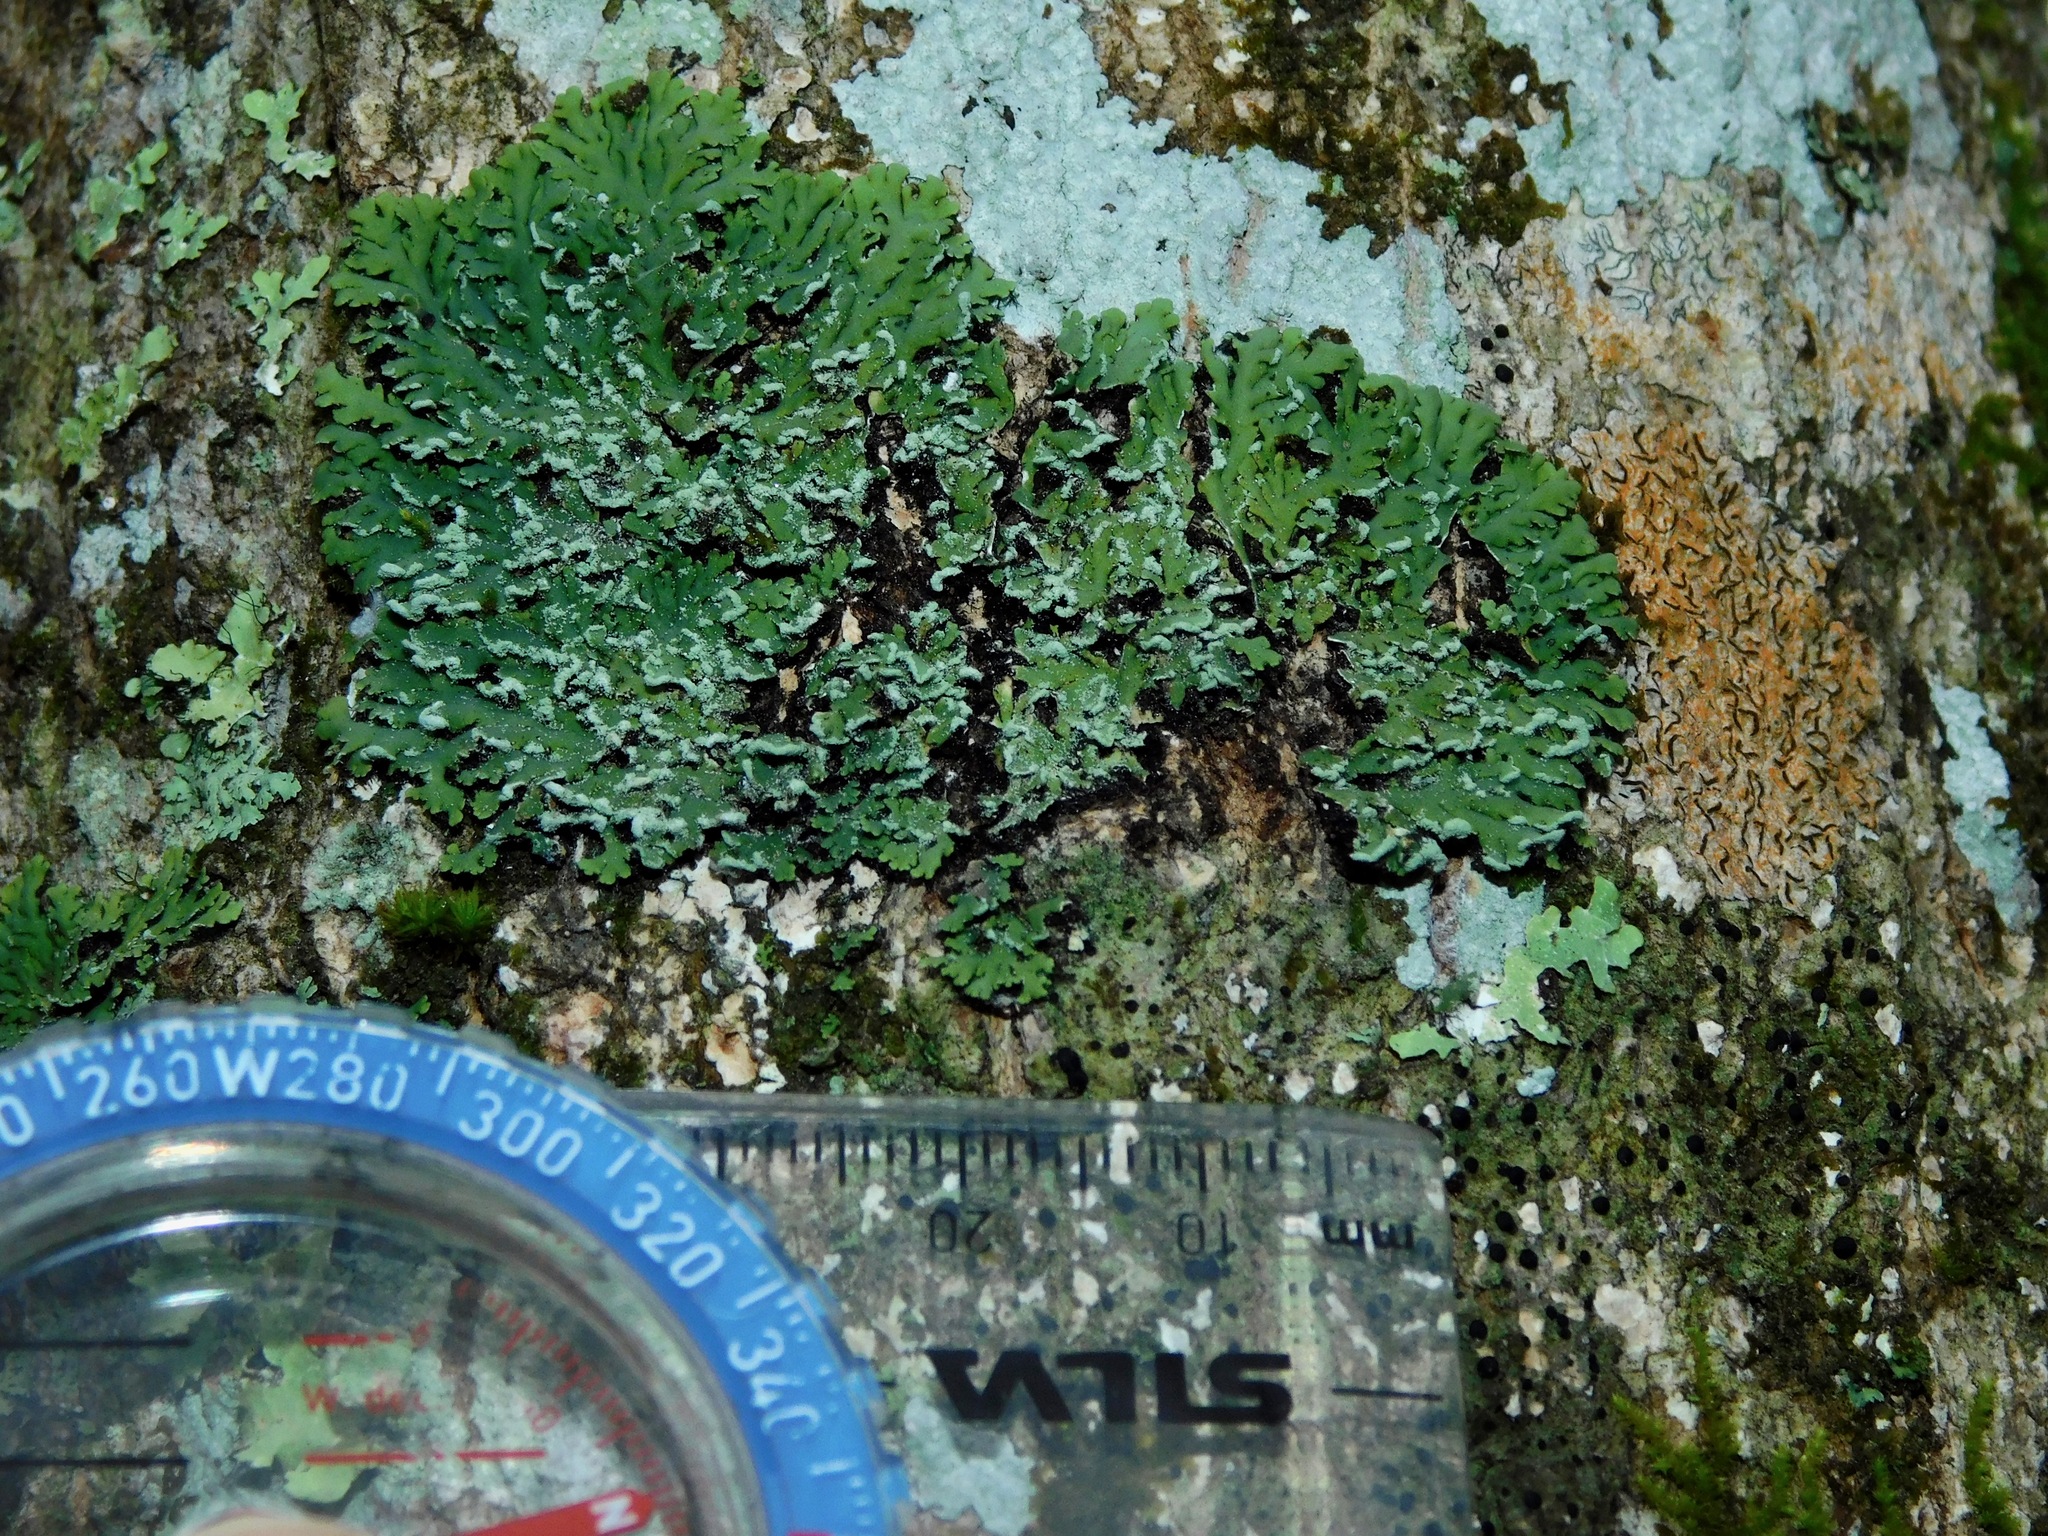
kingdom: Fungi
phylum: Ascomycota
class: Lecanoromycetes
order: Caliciales
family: Physciaceae
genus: Polyblastidium
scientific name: Polyblastidium japonicum
